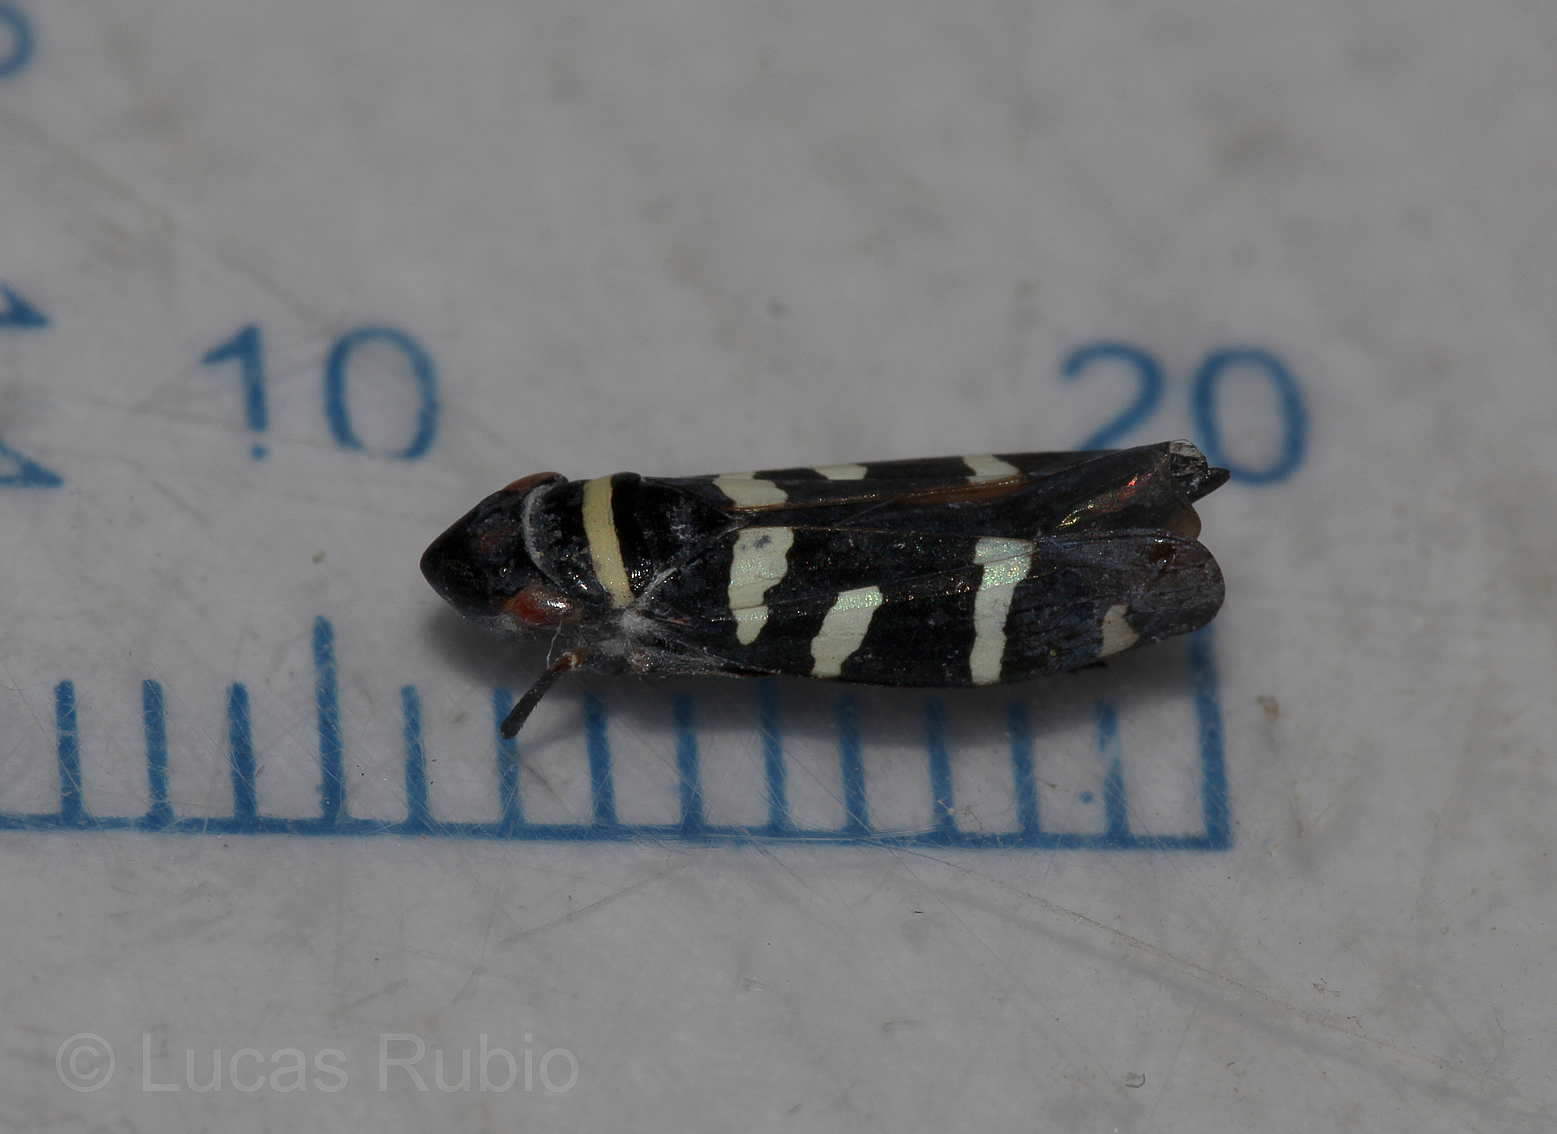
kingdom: Animalia
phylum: Arthropoda
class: Insecta
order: Hemiptera
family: Cicadellidae
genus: Balacha
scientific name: Balacha melanocephala
